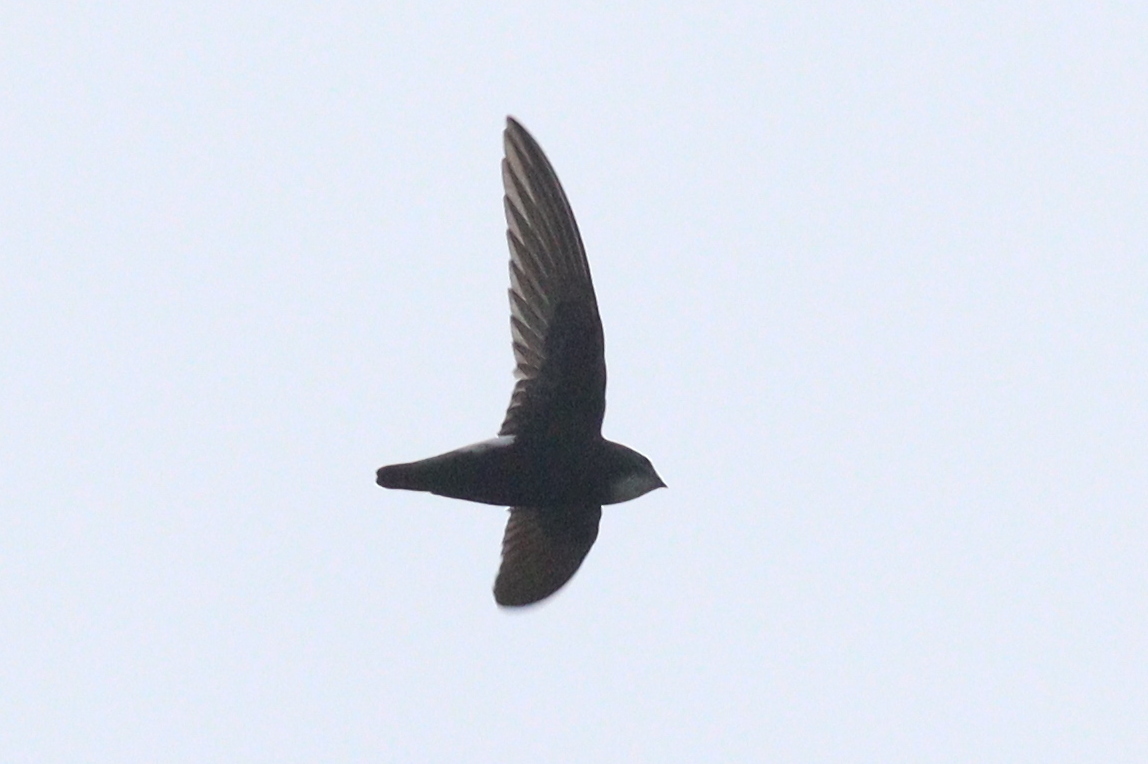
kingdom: Animalia
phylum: Chordata
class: Aves
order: Apodiformes
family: Apodidae
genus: Apus
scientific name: Apus affinis
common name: Little swift
